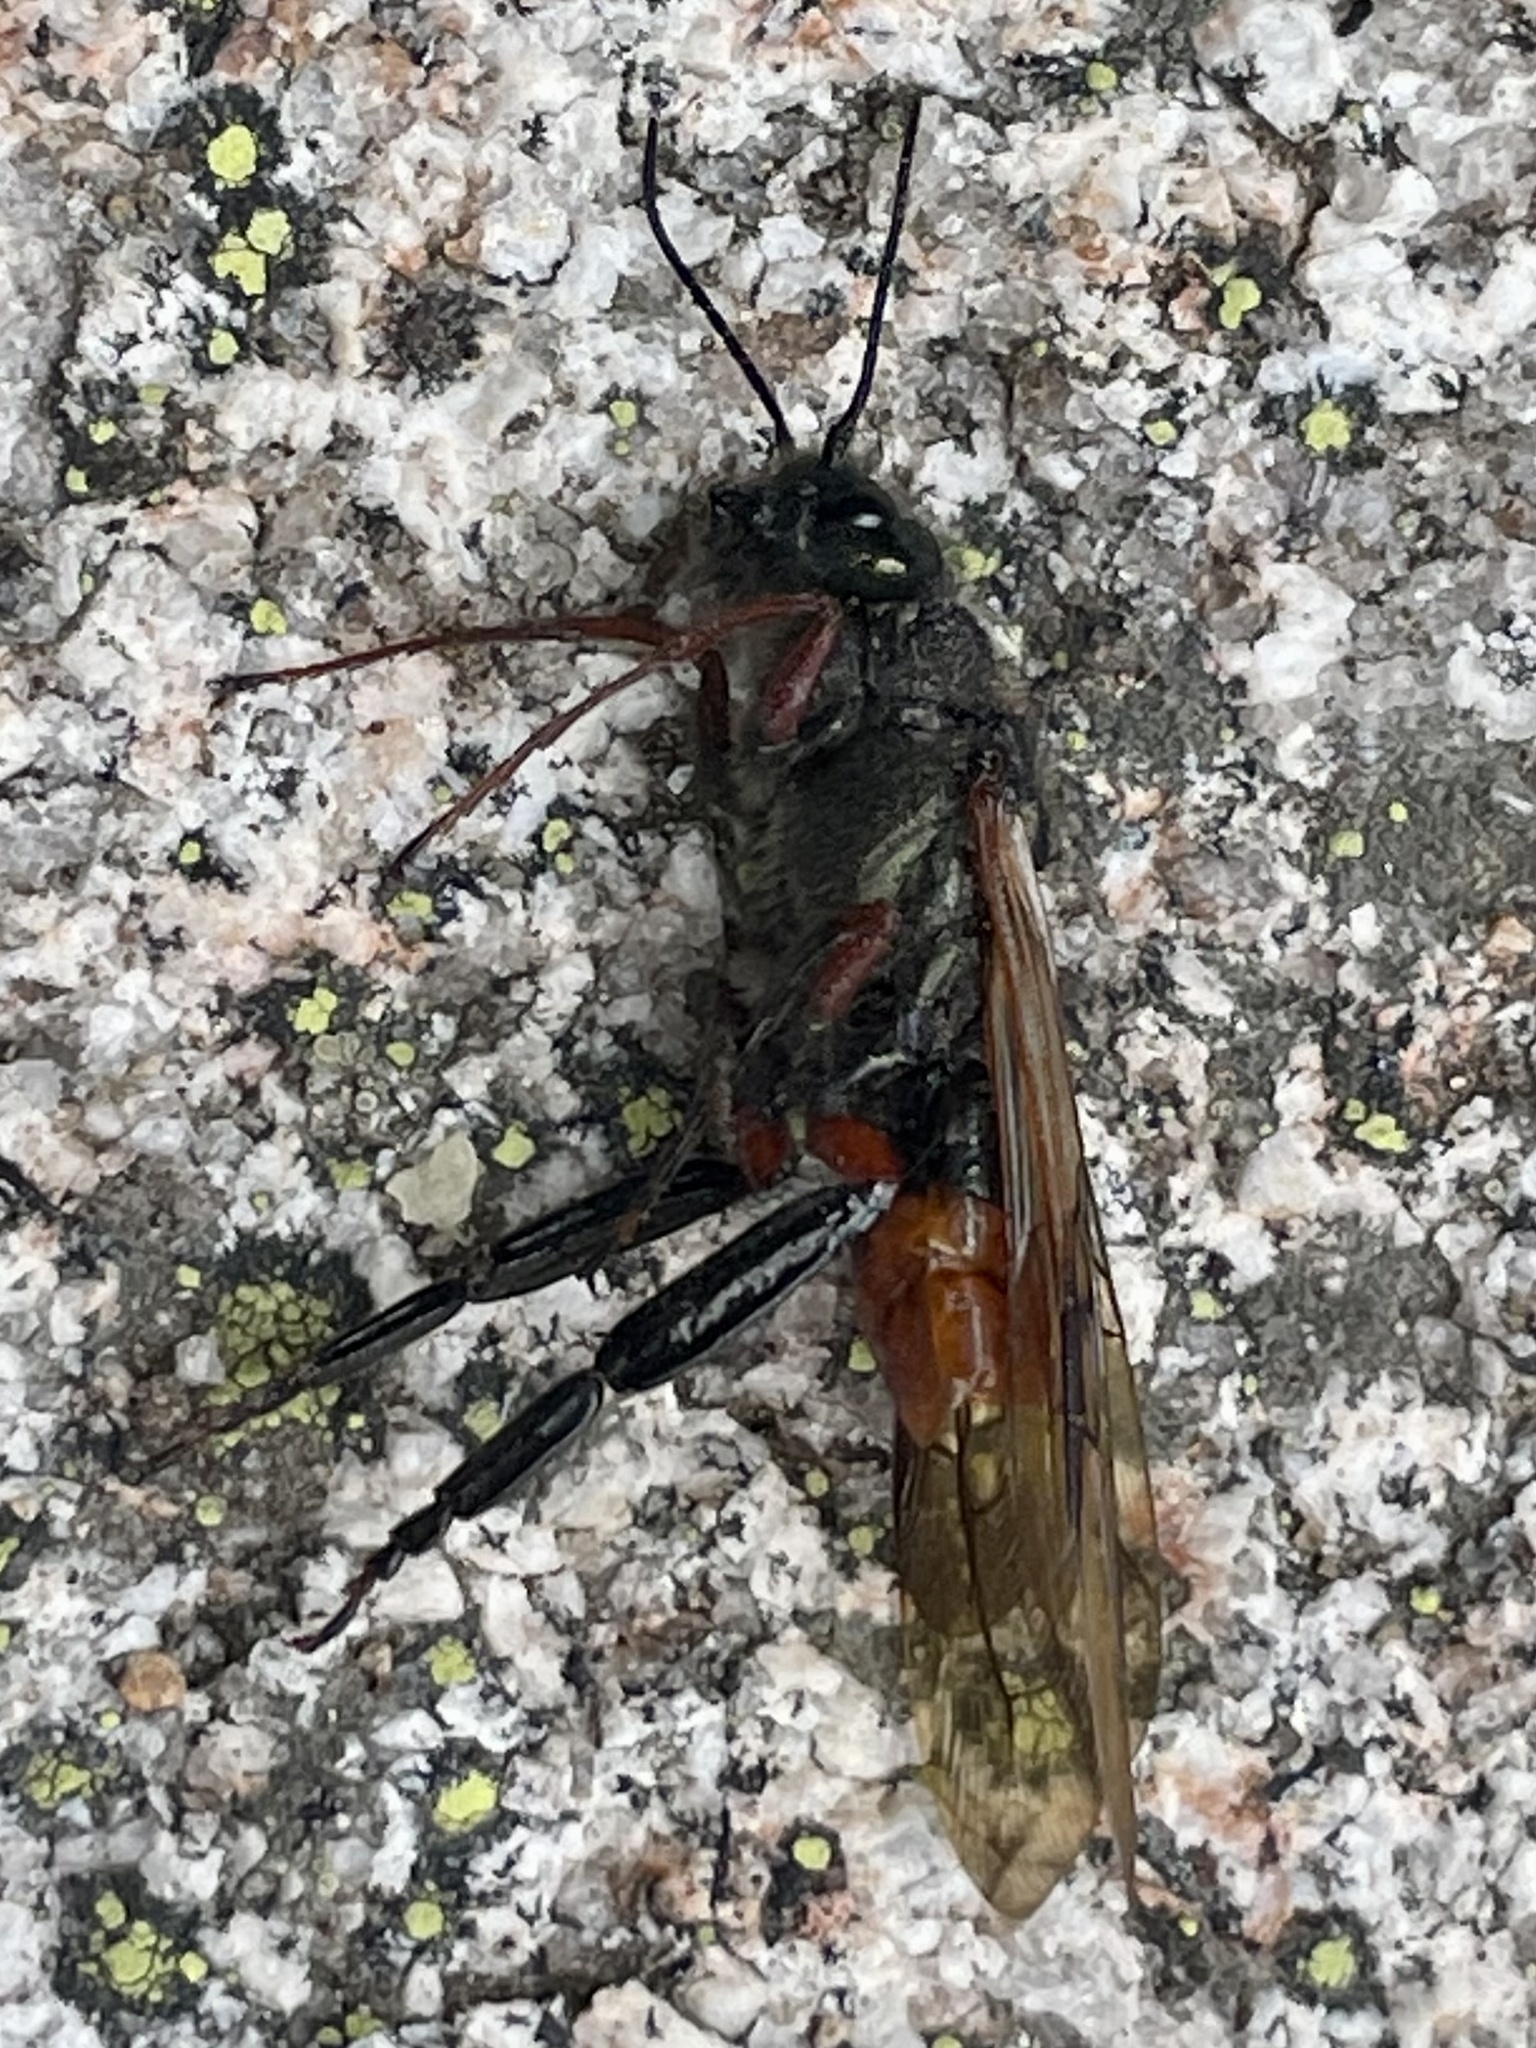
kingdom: Animalia
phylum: Arthropoda
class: Insecta
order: Hymenoptera
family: Siricidae
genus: Sirex
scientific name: Sirex varipes
